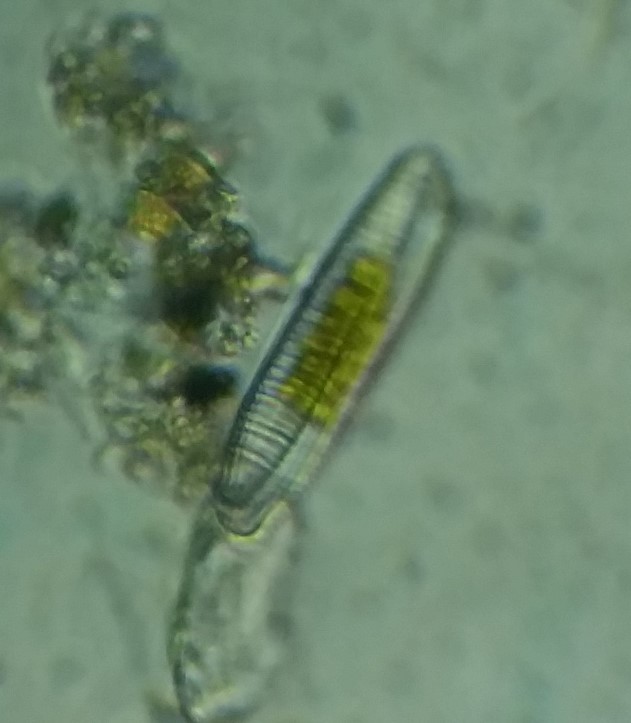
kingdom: Chromista
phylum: Ochrophyta
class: Bacillariophyceae
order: Fragilariales
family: Fragilariaceae
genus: Diatoma
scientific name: Diatoma vulgaris
